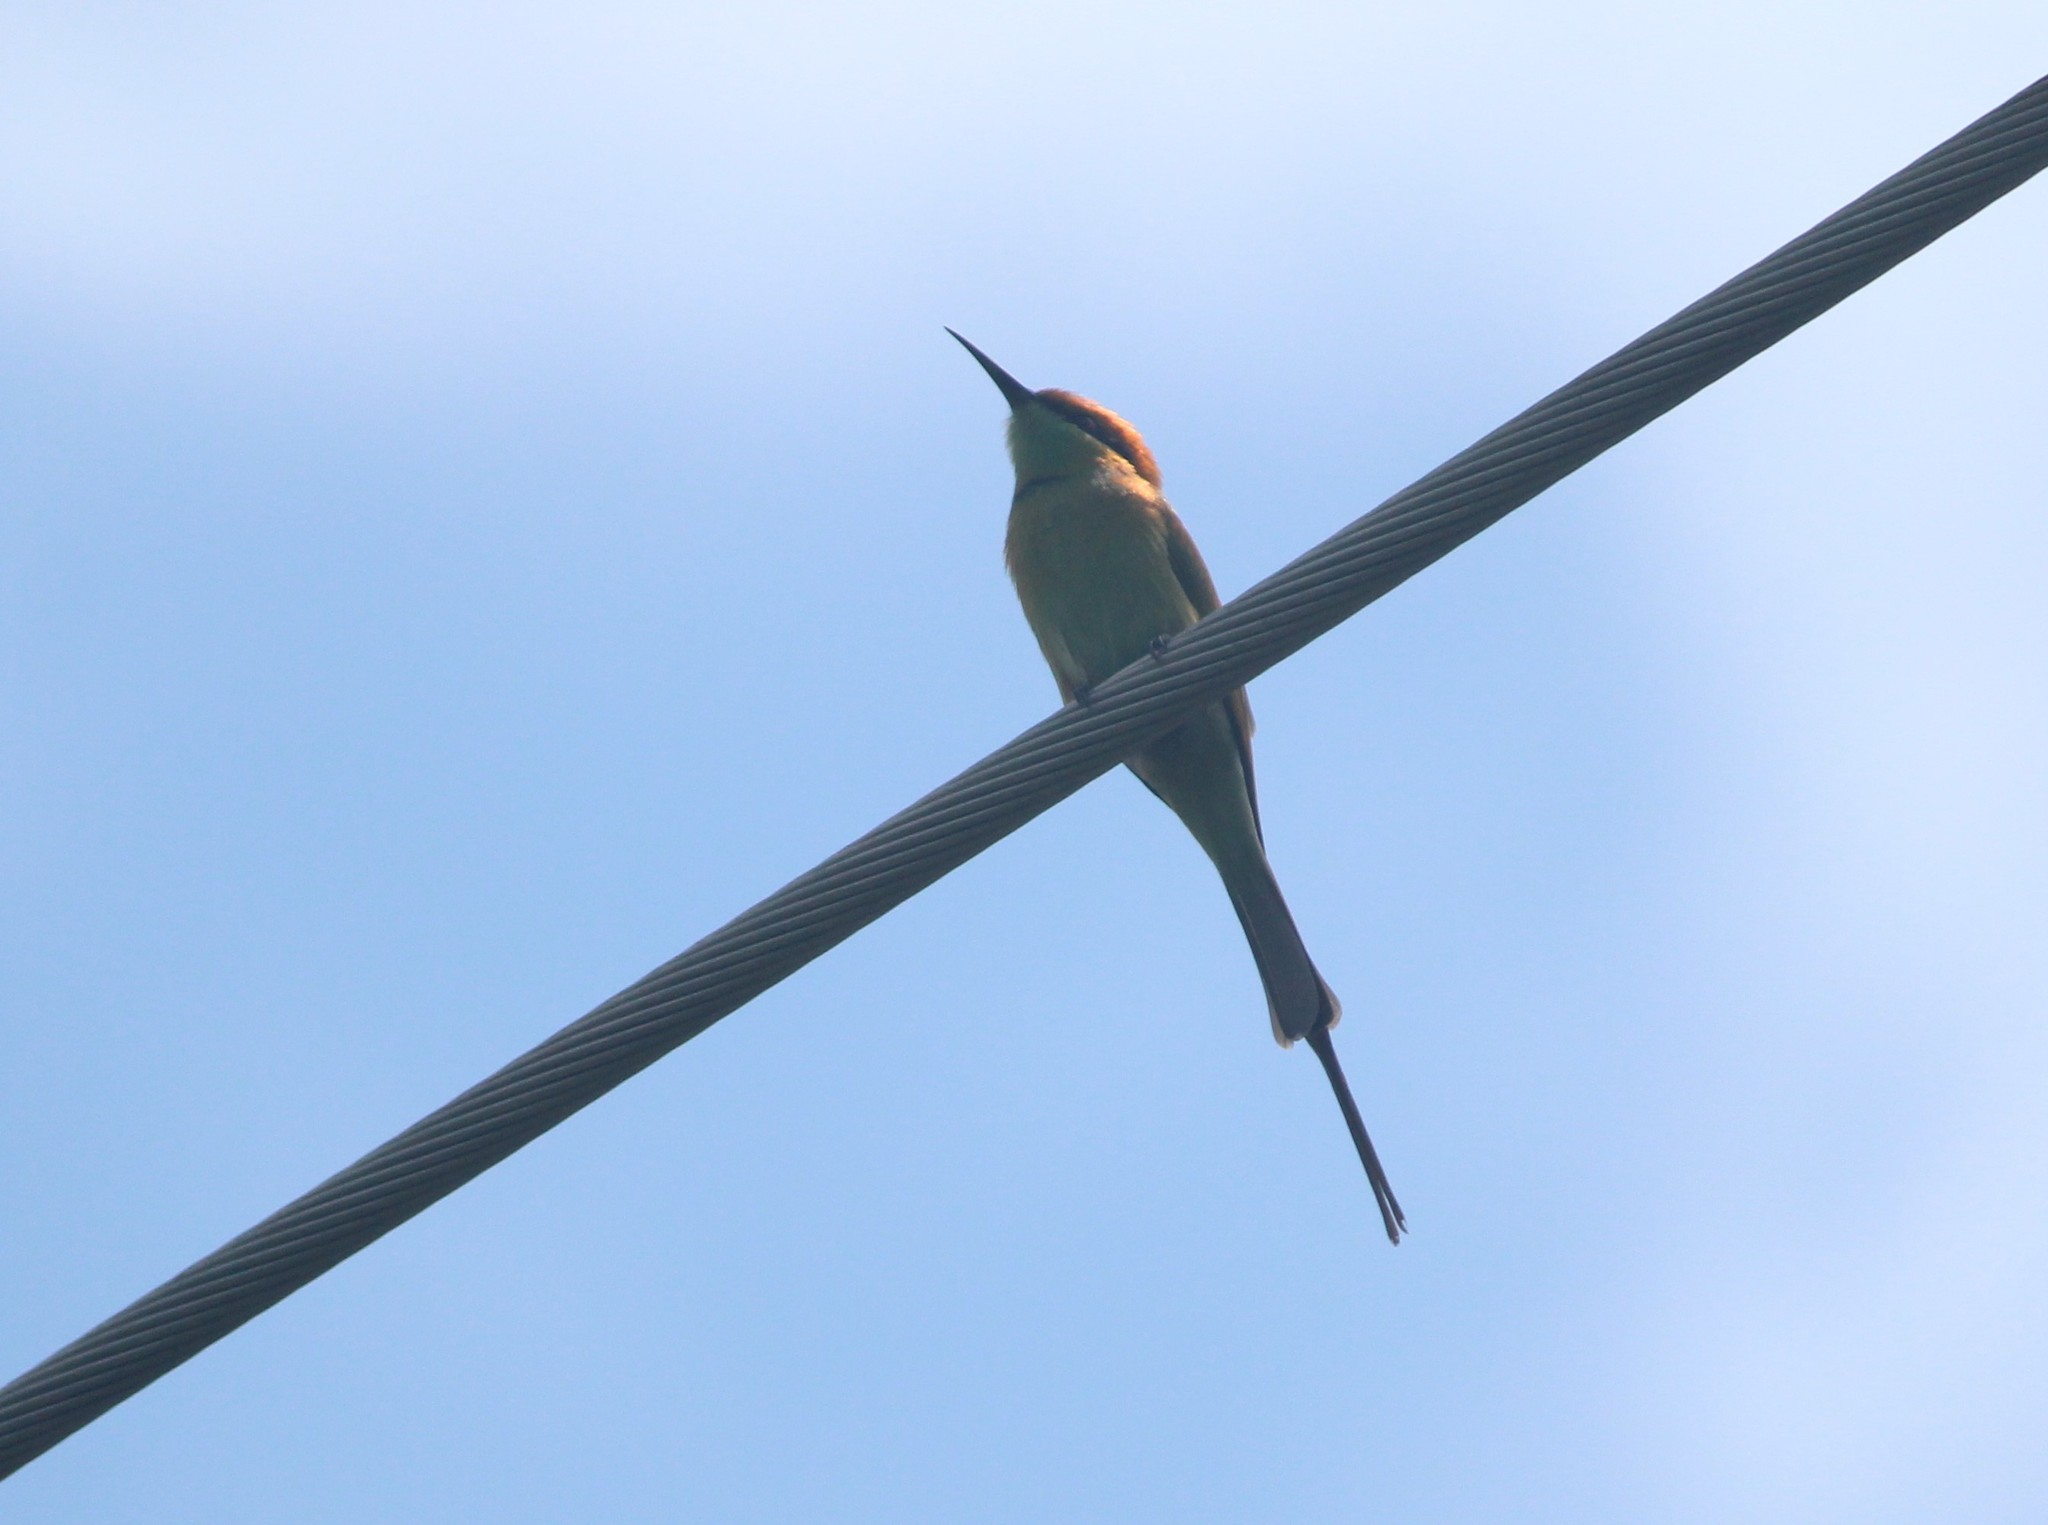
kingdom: Animalia
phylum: Chordata
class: Aves
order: Coraciiformes
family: Meropidae
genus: Merops
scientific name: Merops orientalis
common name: Green bee-eater
